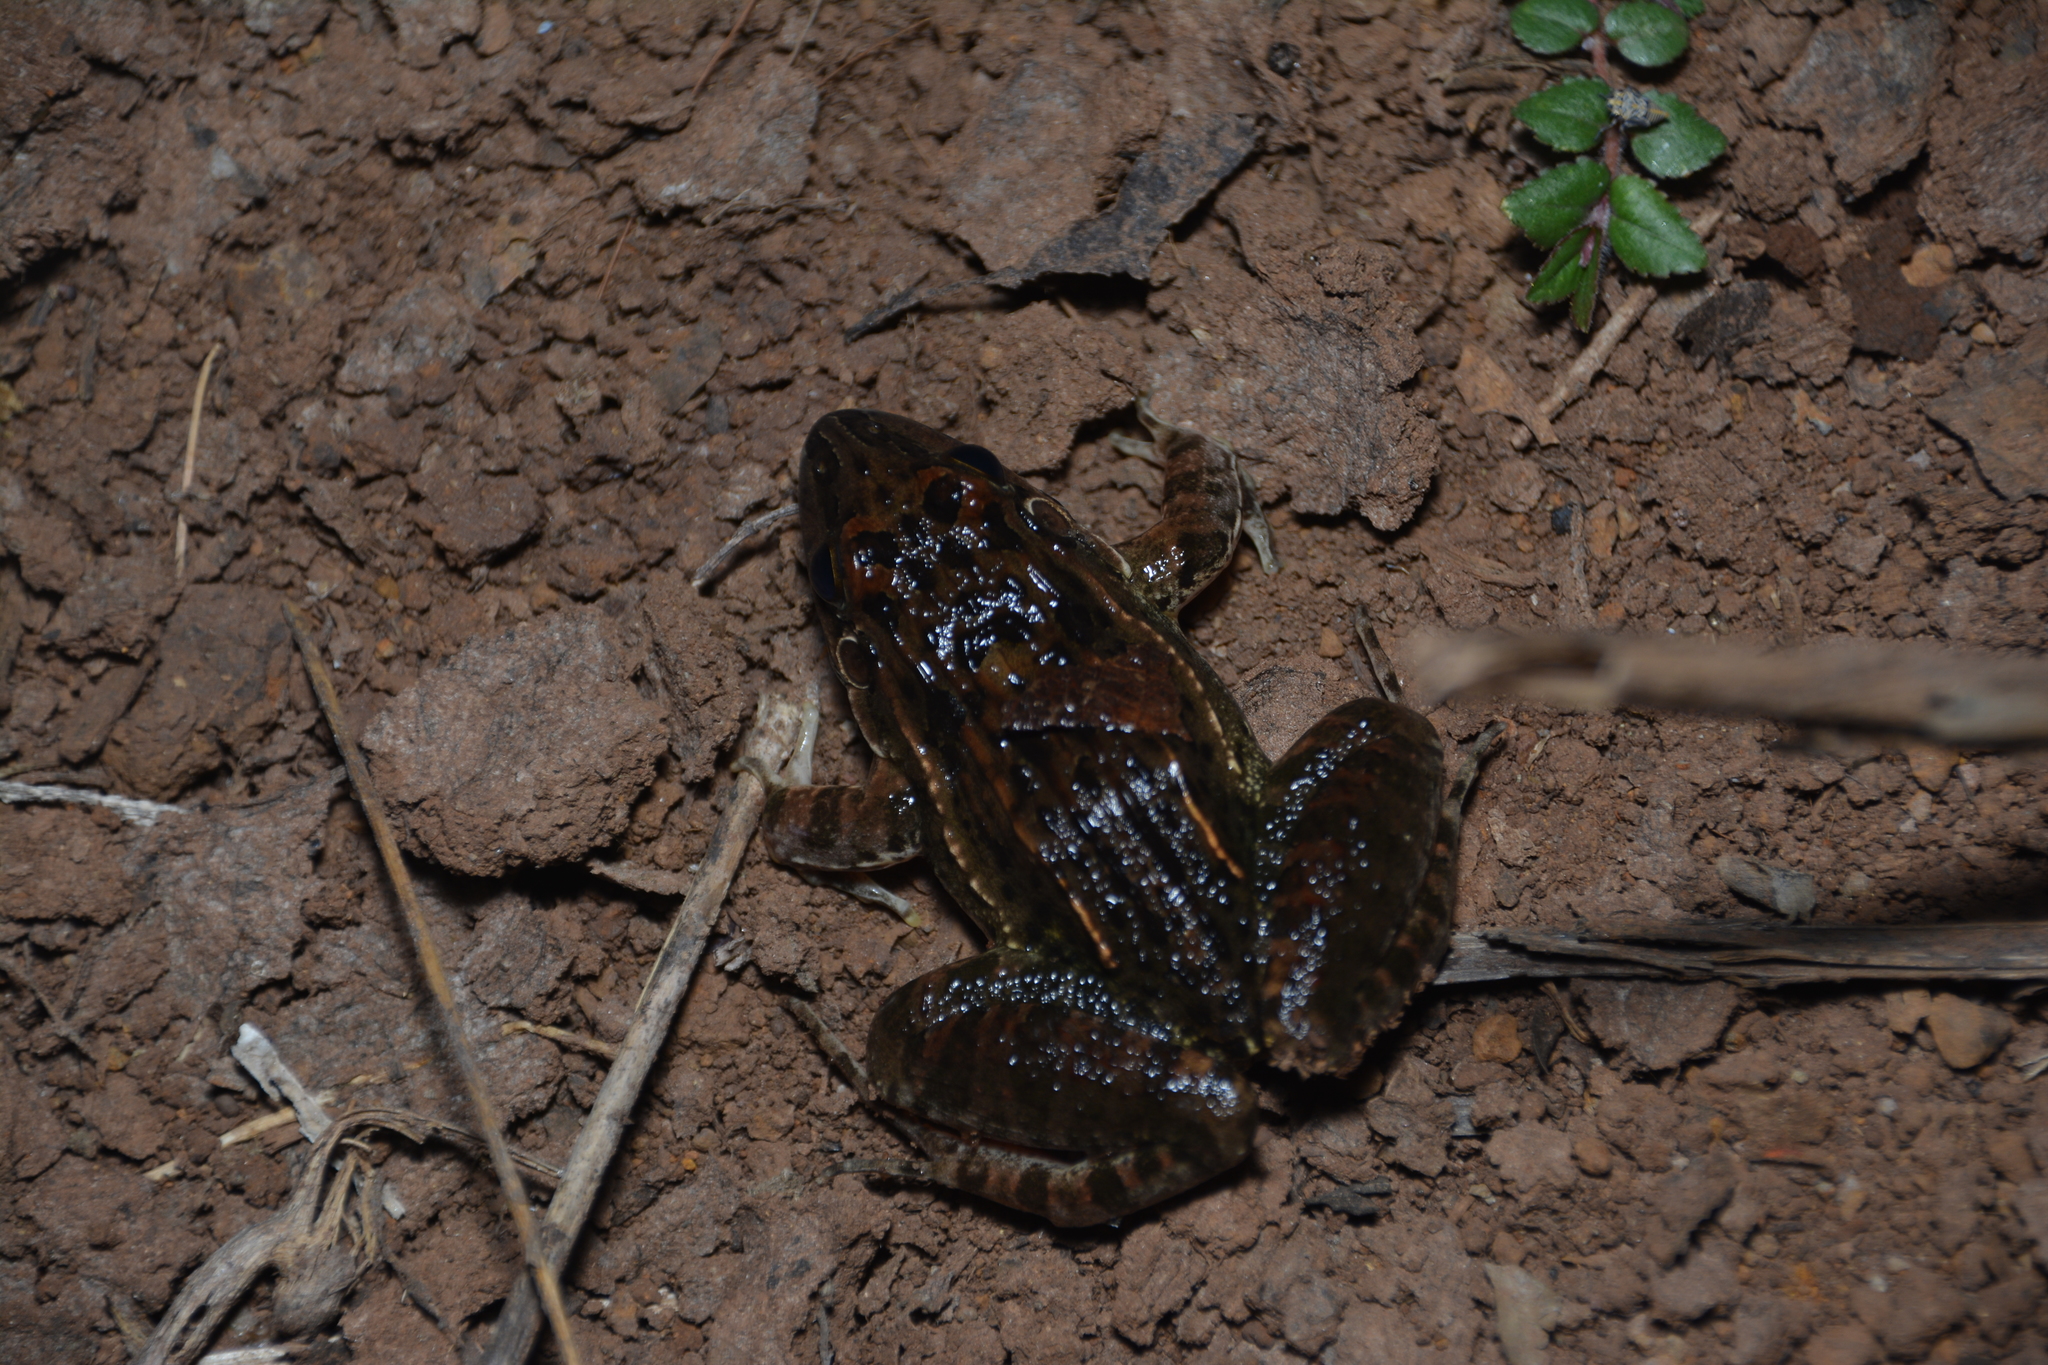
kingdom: Animalia
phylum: Chordata
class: Amphibia
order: Anura
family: Leptodactylidae
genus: Leptodactylus
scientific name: Leptodactylus fuscus
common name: Rufous frog
